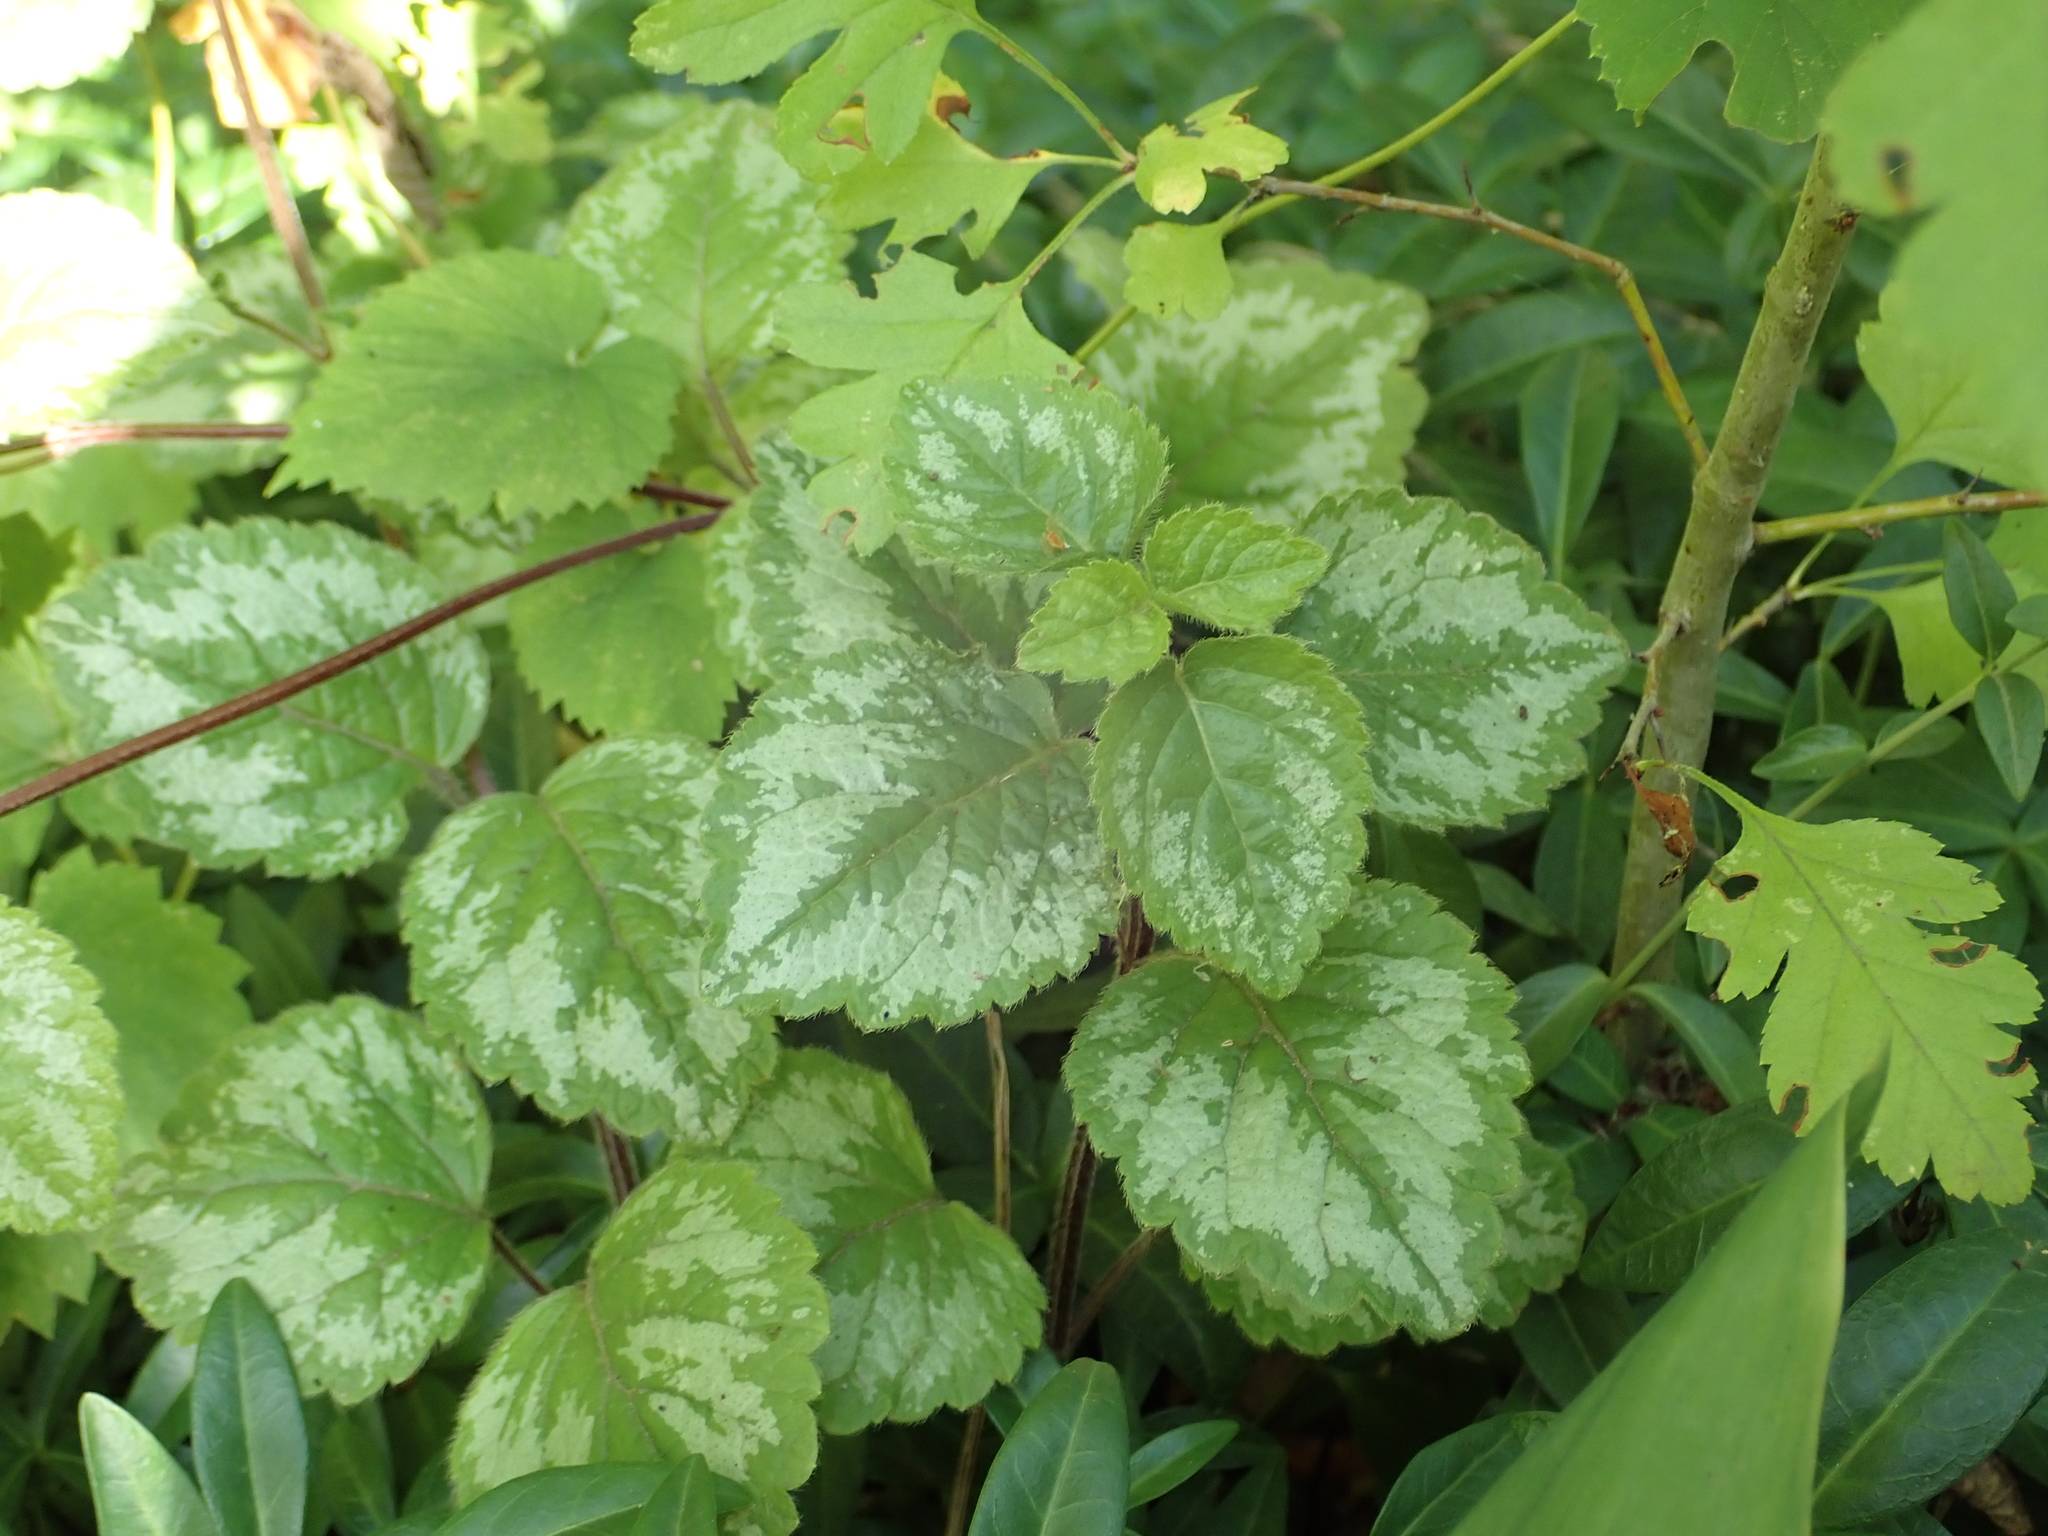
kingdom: Plantae
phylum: Tracheophyta
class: Magnoliopsida
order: Lamiales
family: Lamiaceae
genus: Lamium
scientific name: Lamium galeobdolon
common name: Yellow archangel
